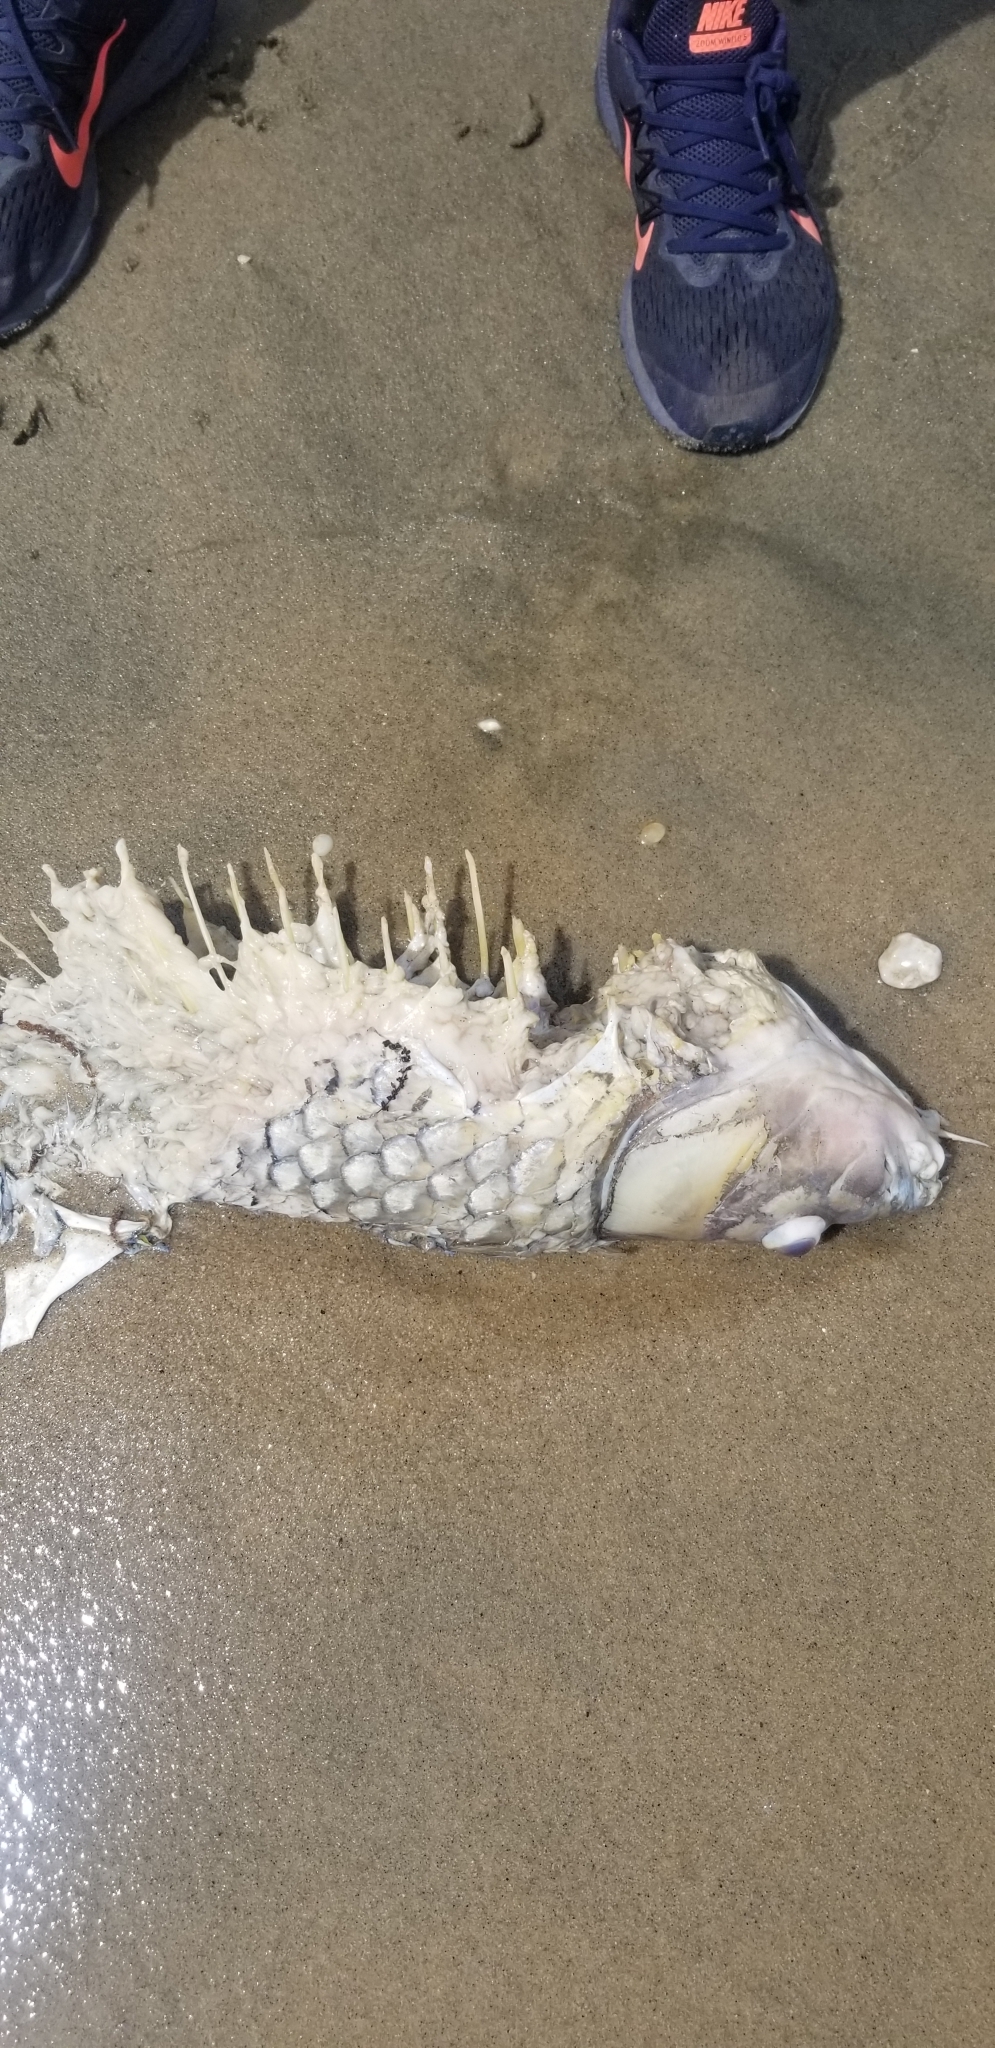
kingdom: Animalia
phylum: Chordata
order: Cypriniformes
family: Cyprinidae
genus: Cyprinus
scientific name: Cyprinus carpio
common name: Common carp
